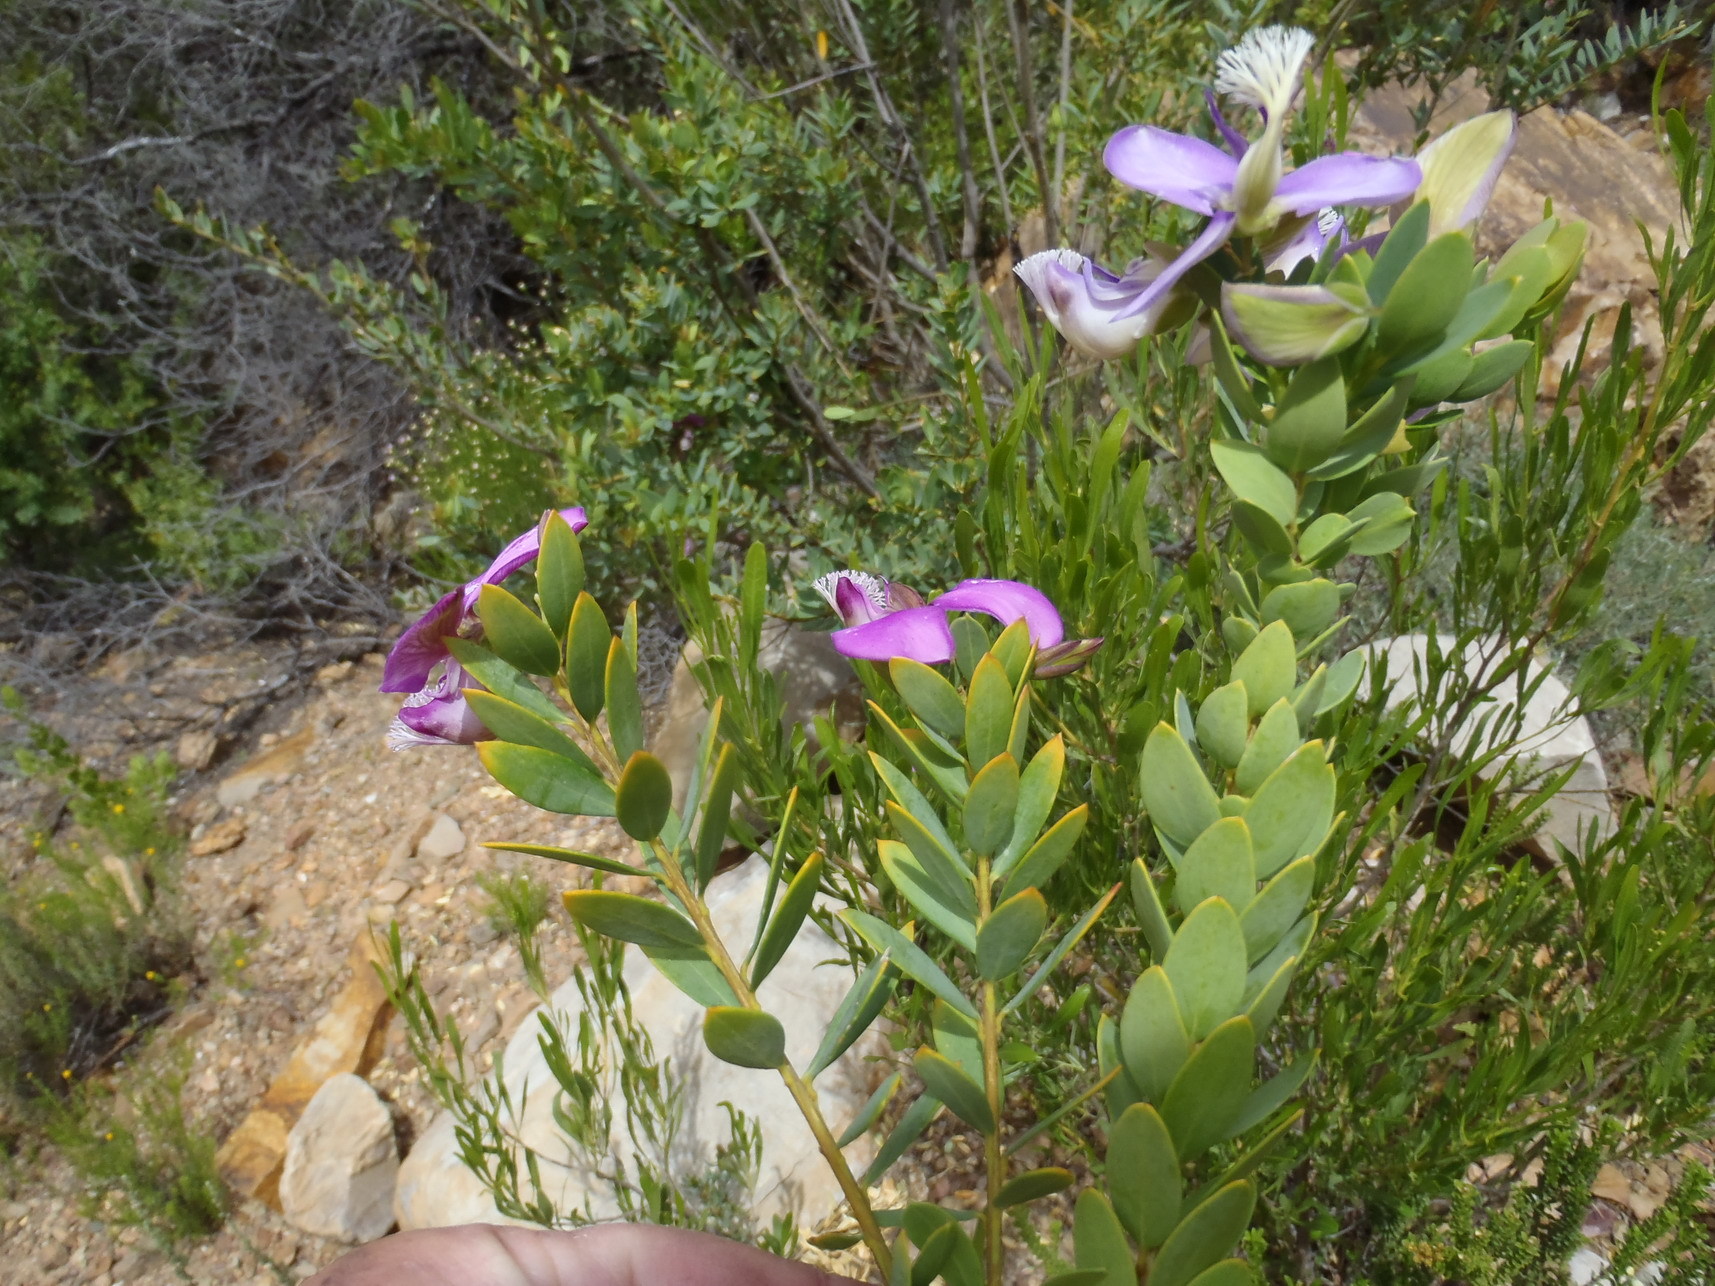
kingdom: Plantae
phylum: Tracheophyta
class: Magnoliopsida
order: Fabales
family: Polygalaceae
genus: Polygala
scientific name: Polygala myrtifolia
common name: Myrtle-leaf milkwort
